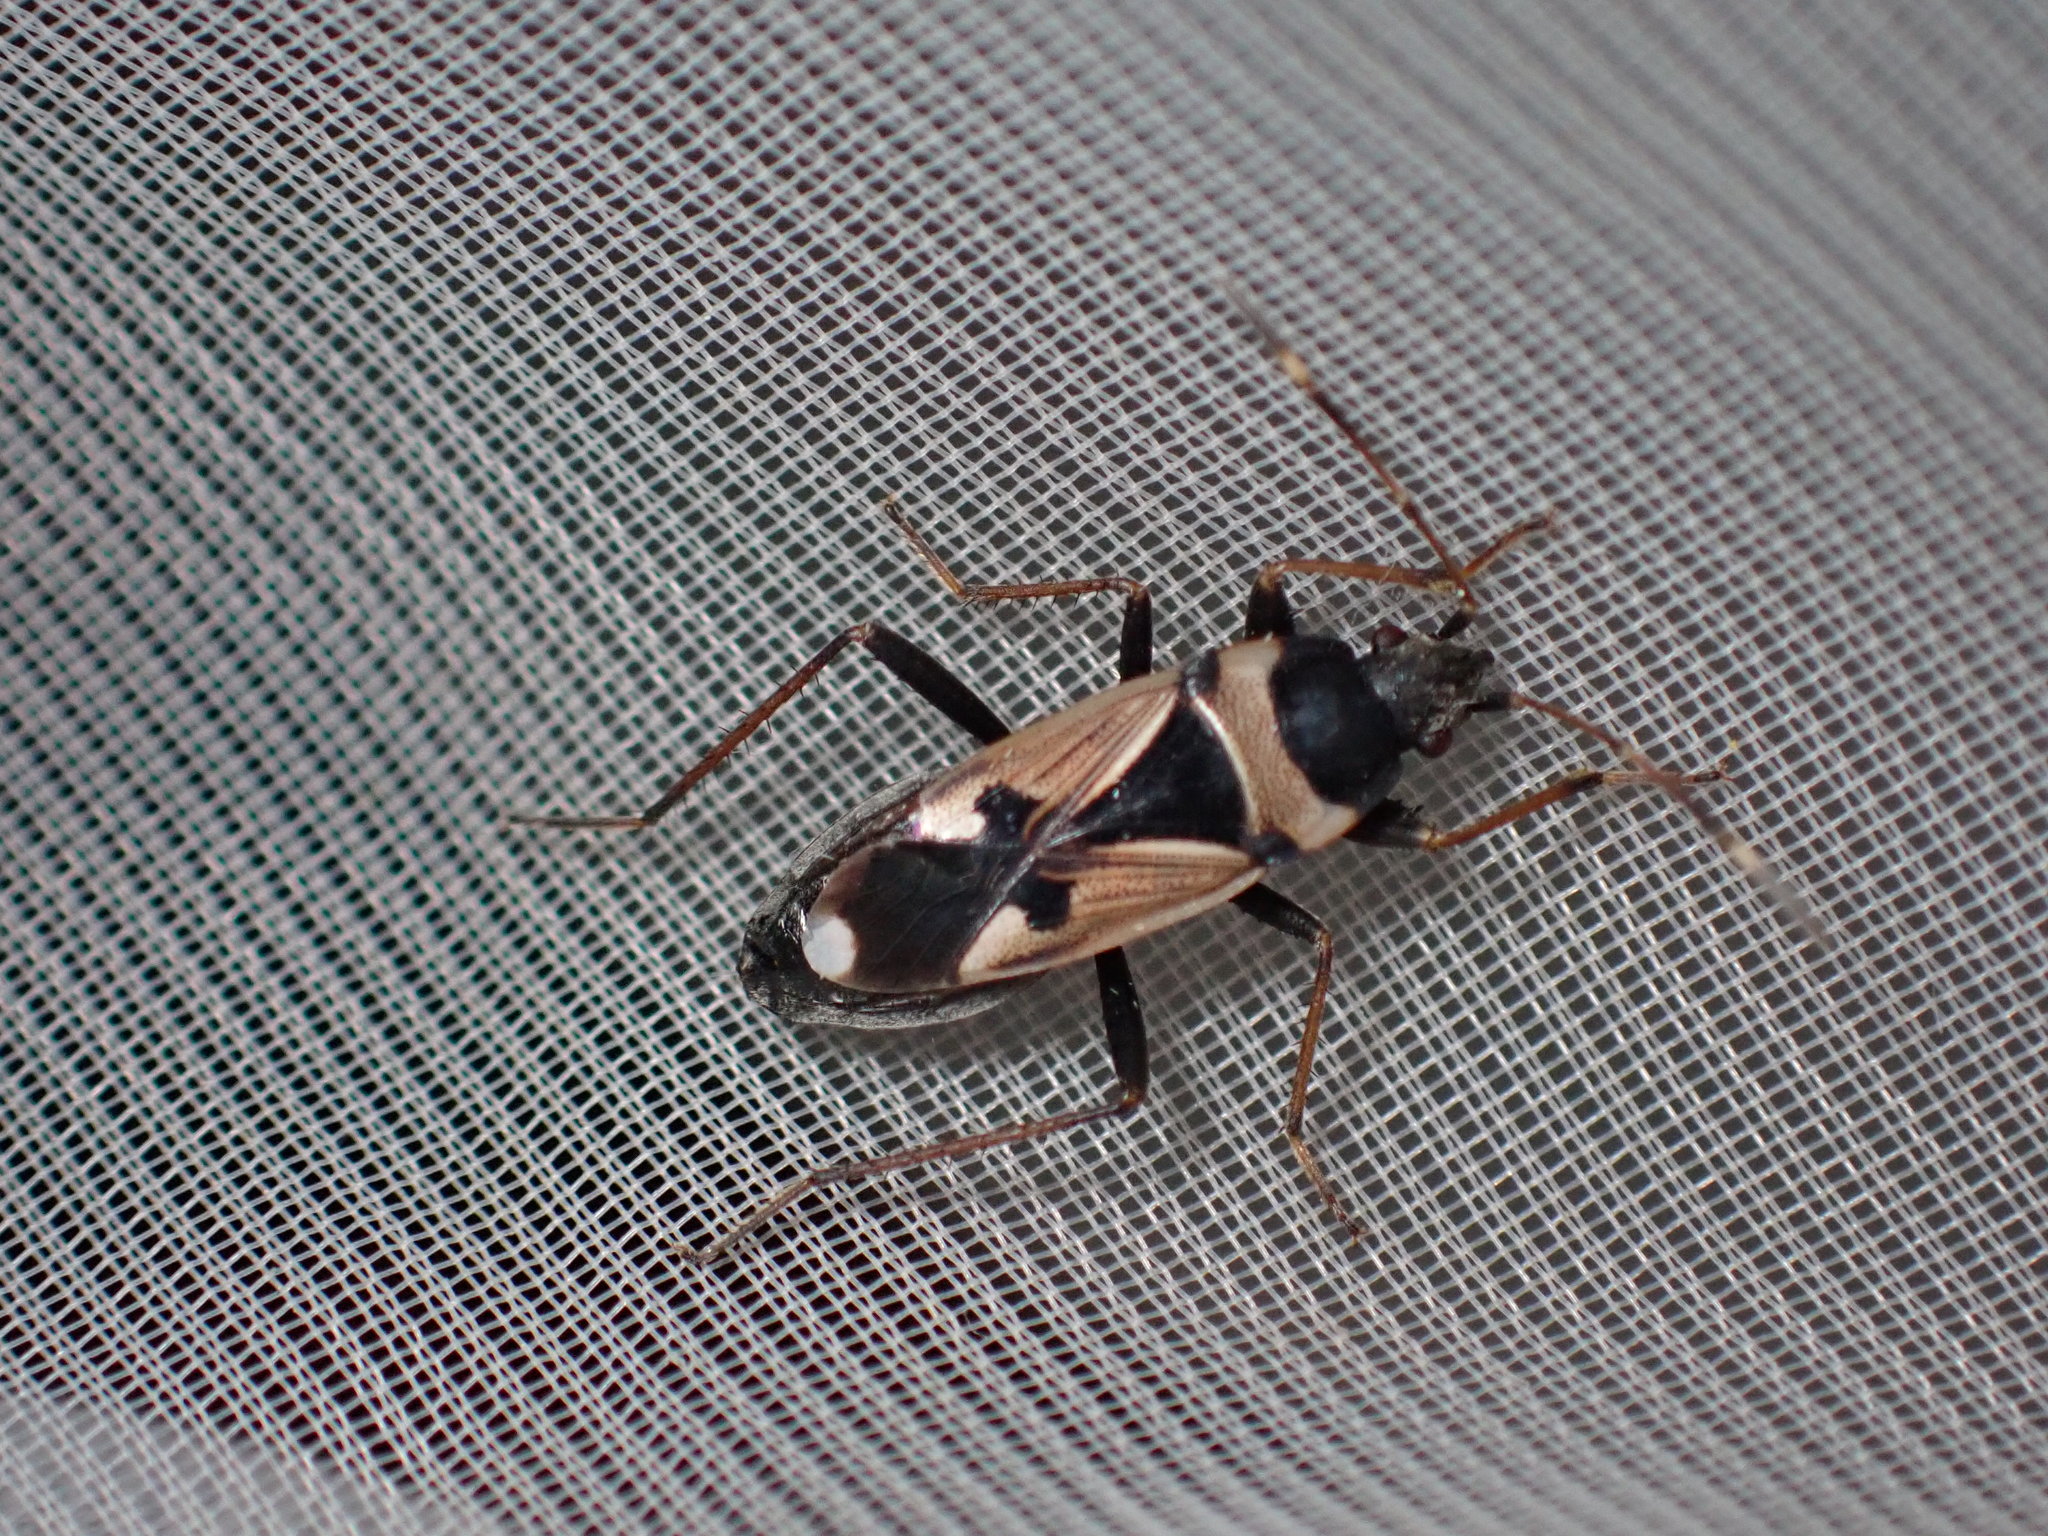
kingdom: Animalia
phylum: Arthropoda
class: Insecta
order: Hemiptera
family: Rhyparochromidae
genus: Raglius
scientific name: Raglius confusus
